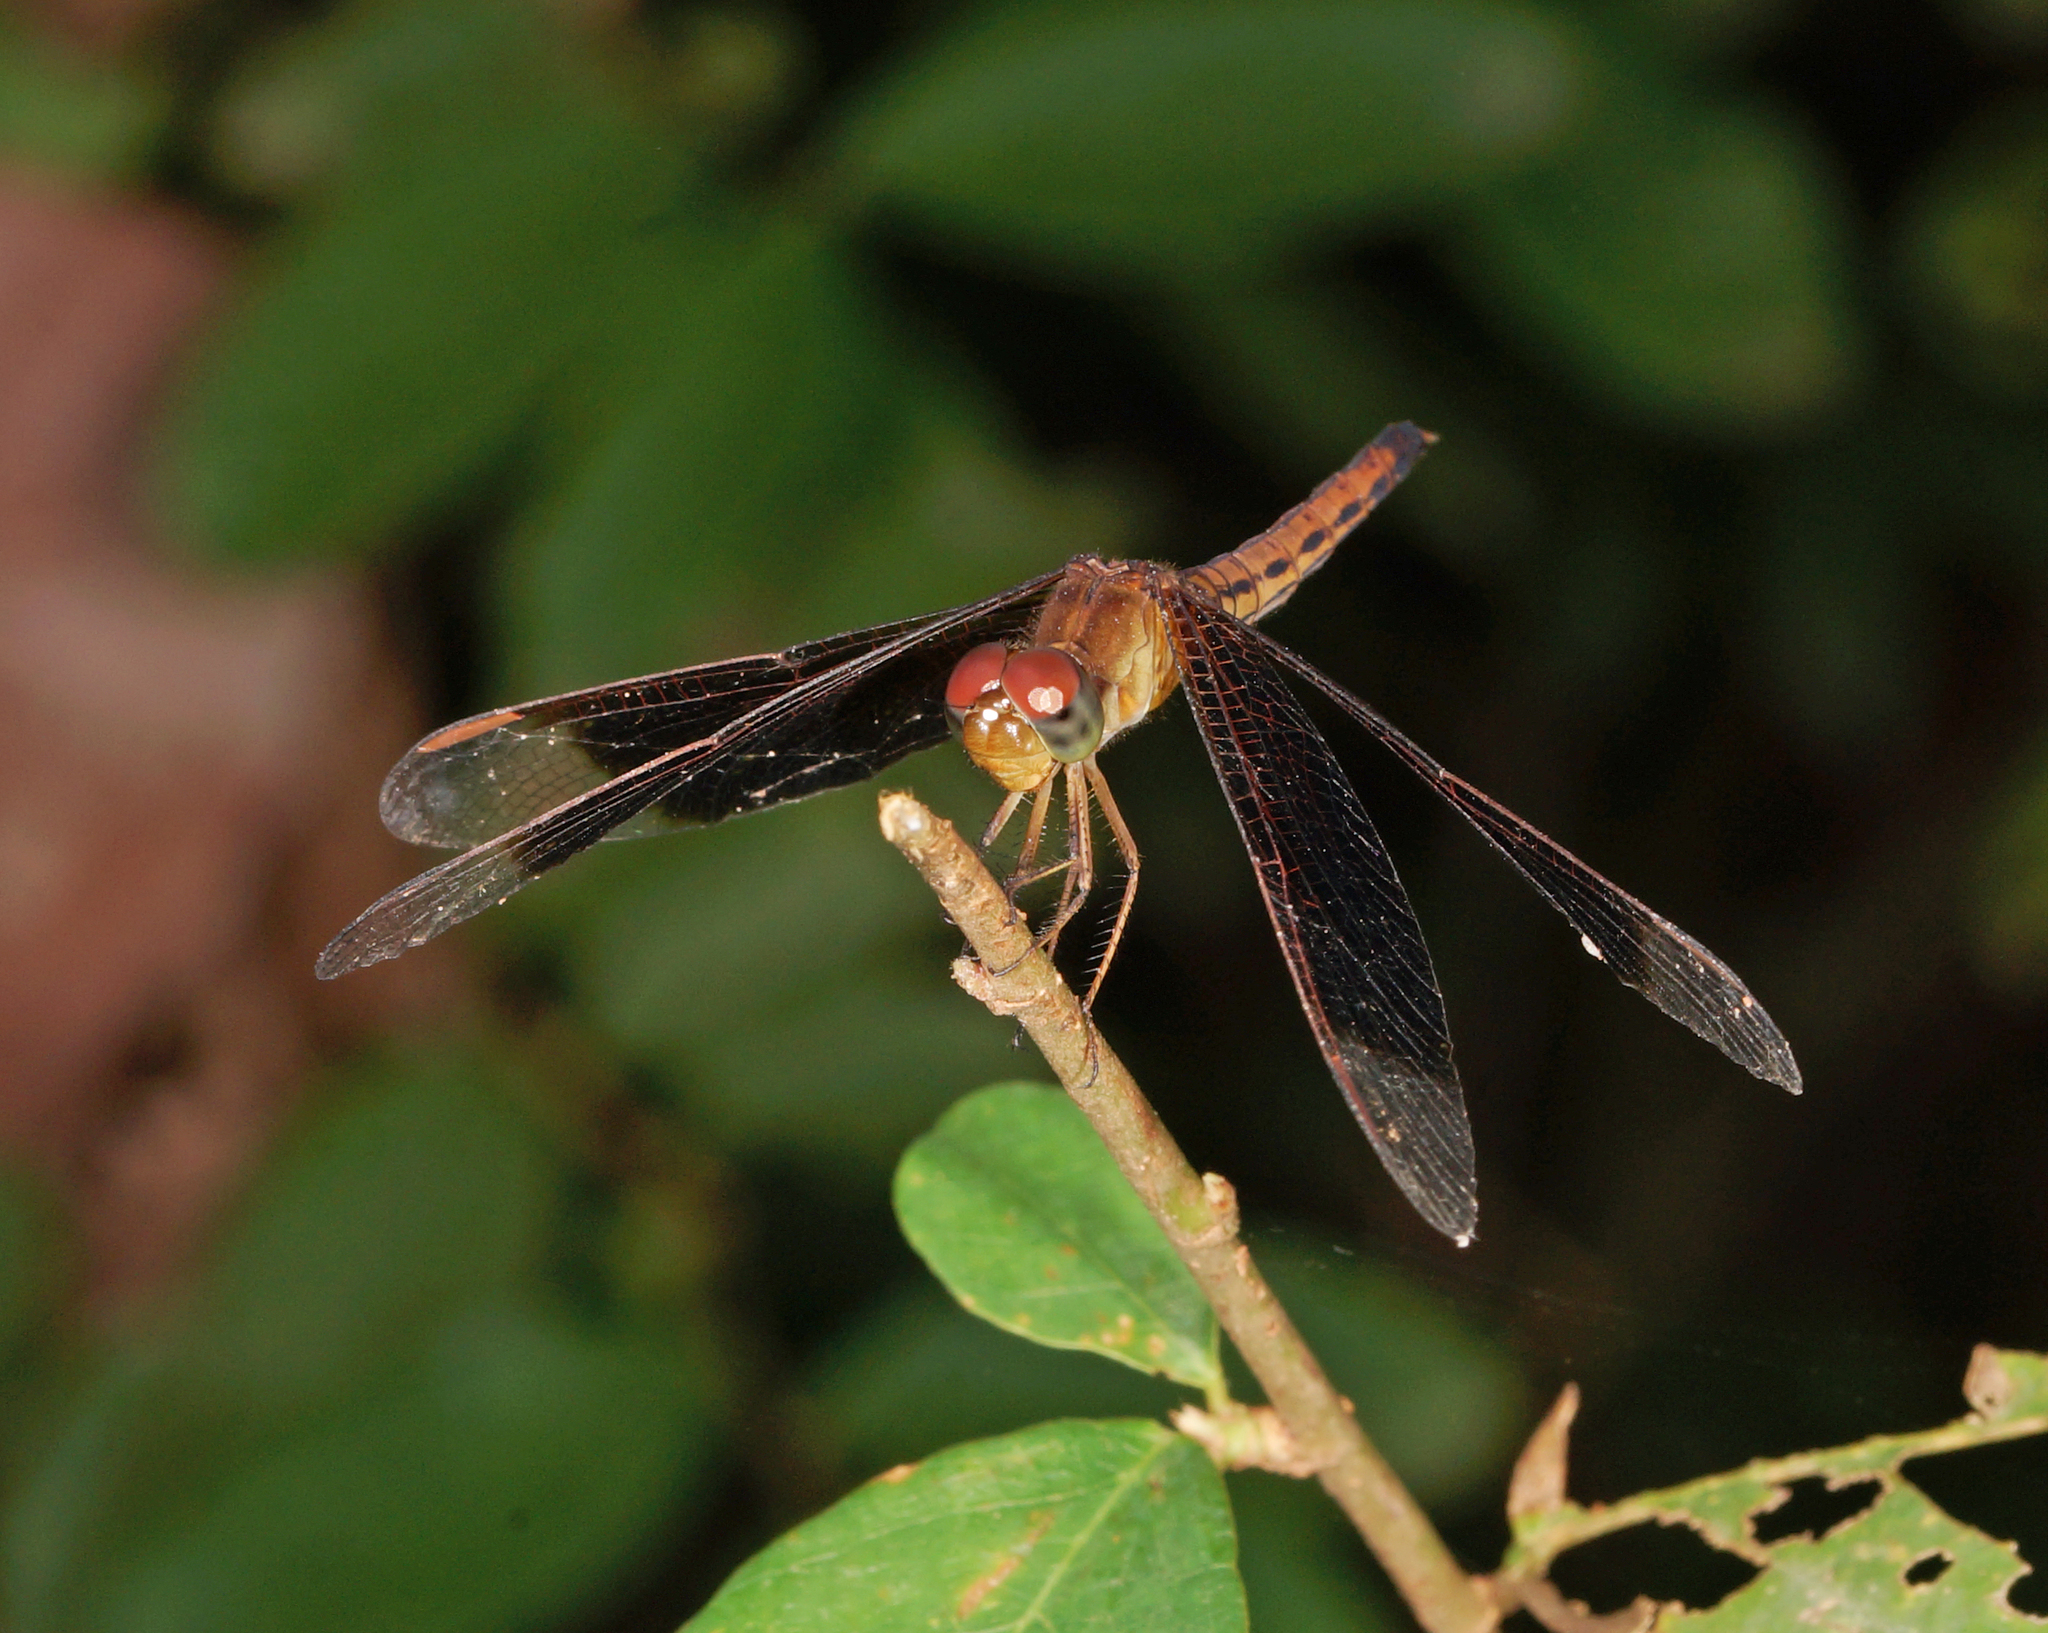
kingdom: Animalia
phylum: Arthropoda
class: Insecta
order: Odonata
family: Libellulidae
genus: Neurothemis
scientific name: Neurothemis fluctuans
